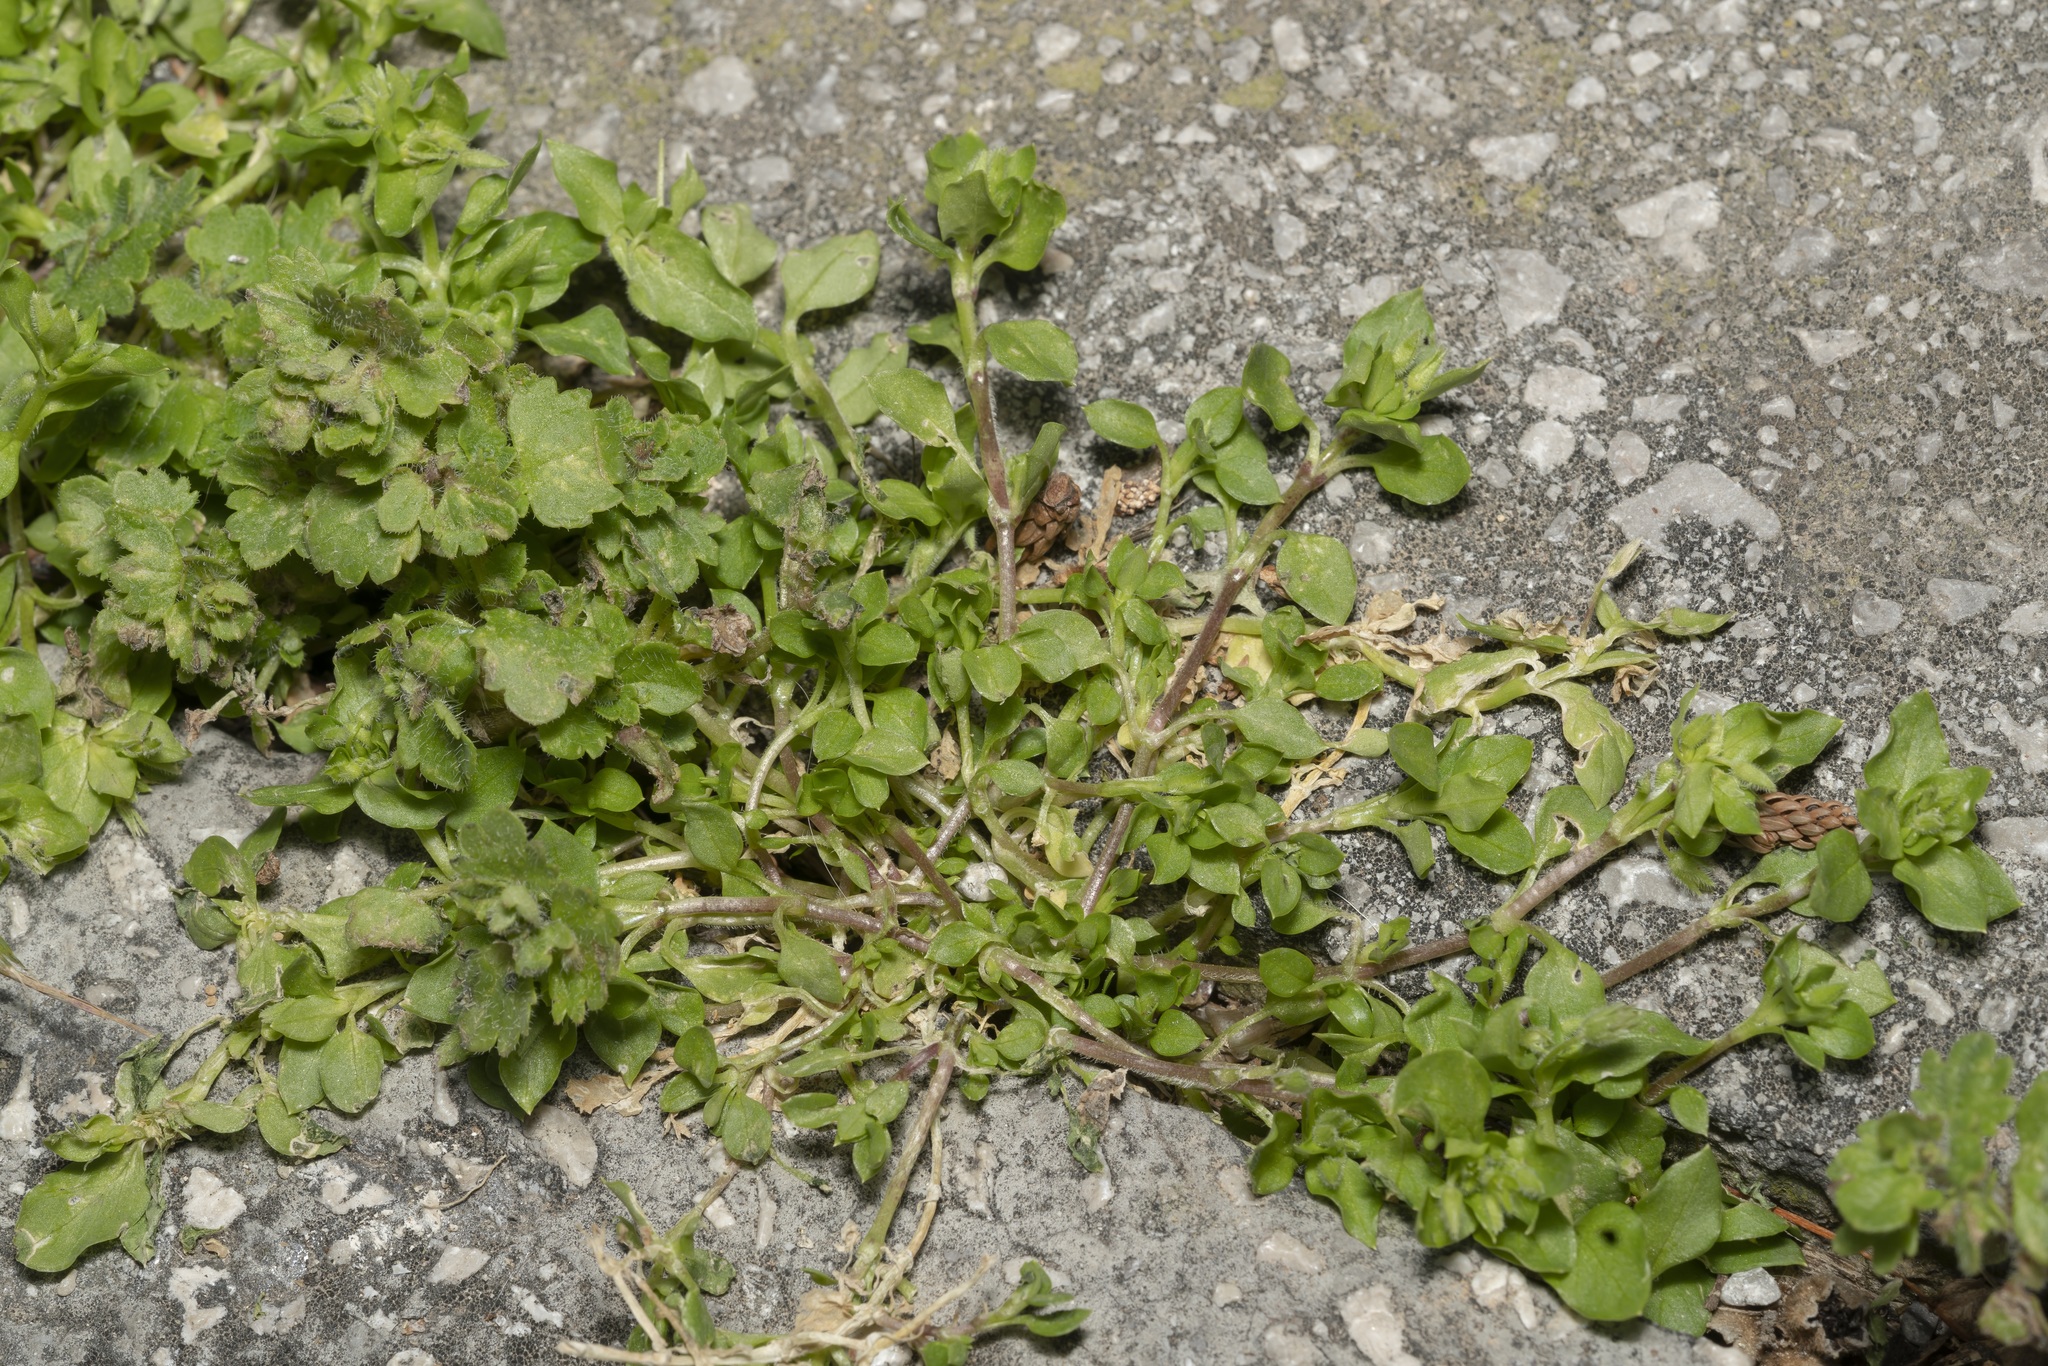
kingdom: Plantae
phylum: Tracheophyta
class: Magnoliopsida
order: Caryophyllales
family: Caryophyllaceae
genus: Stellaria
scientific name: Stellaria apetala
